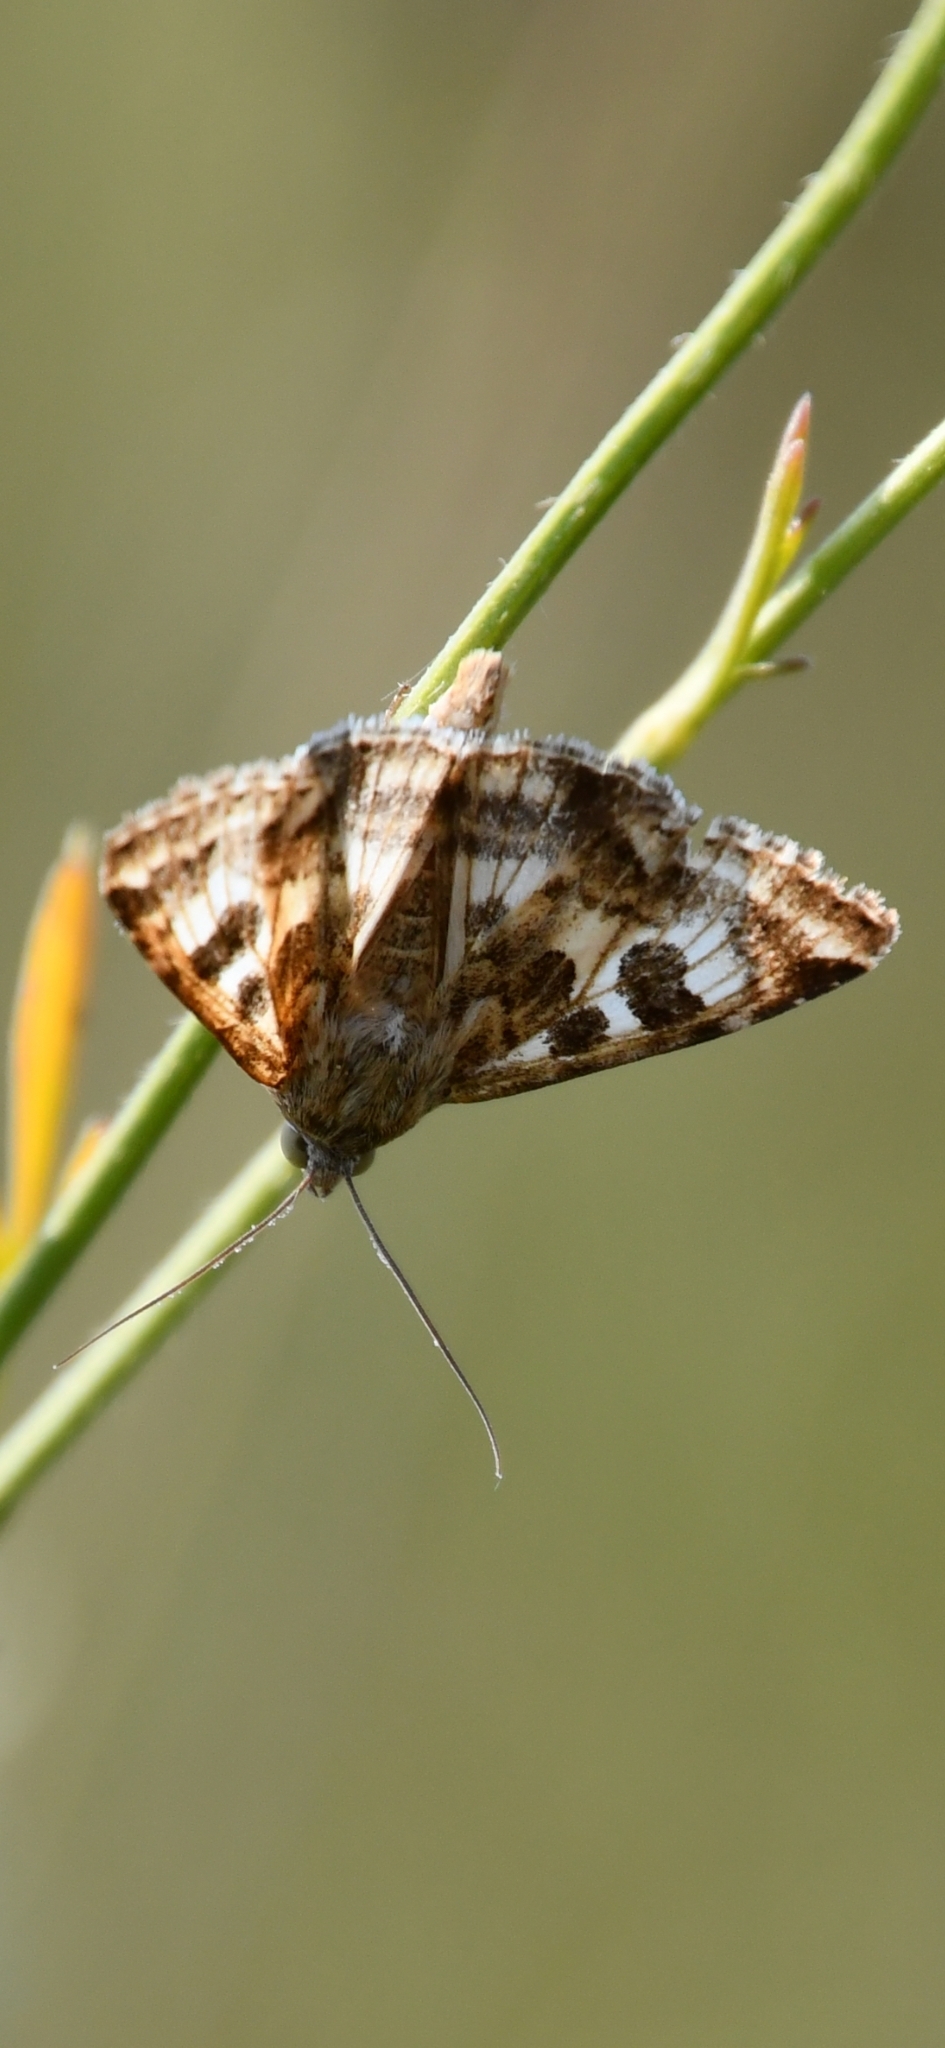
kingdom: Animalia
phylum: Arthropoda
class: Insecta
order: Lepidoptera
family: Noctuidae
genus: Protoschinia
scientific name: Protoschinia scutosa
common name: Spotted clover
